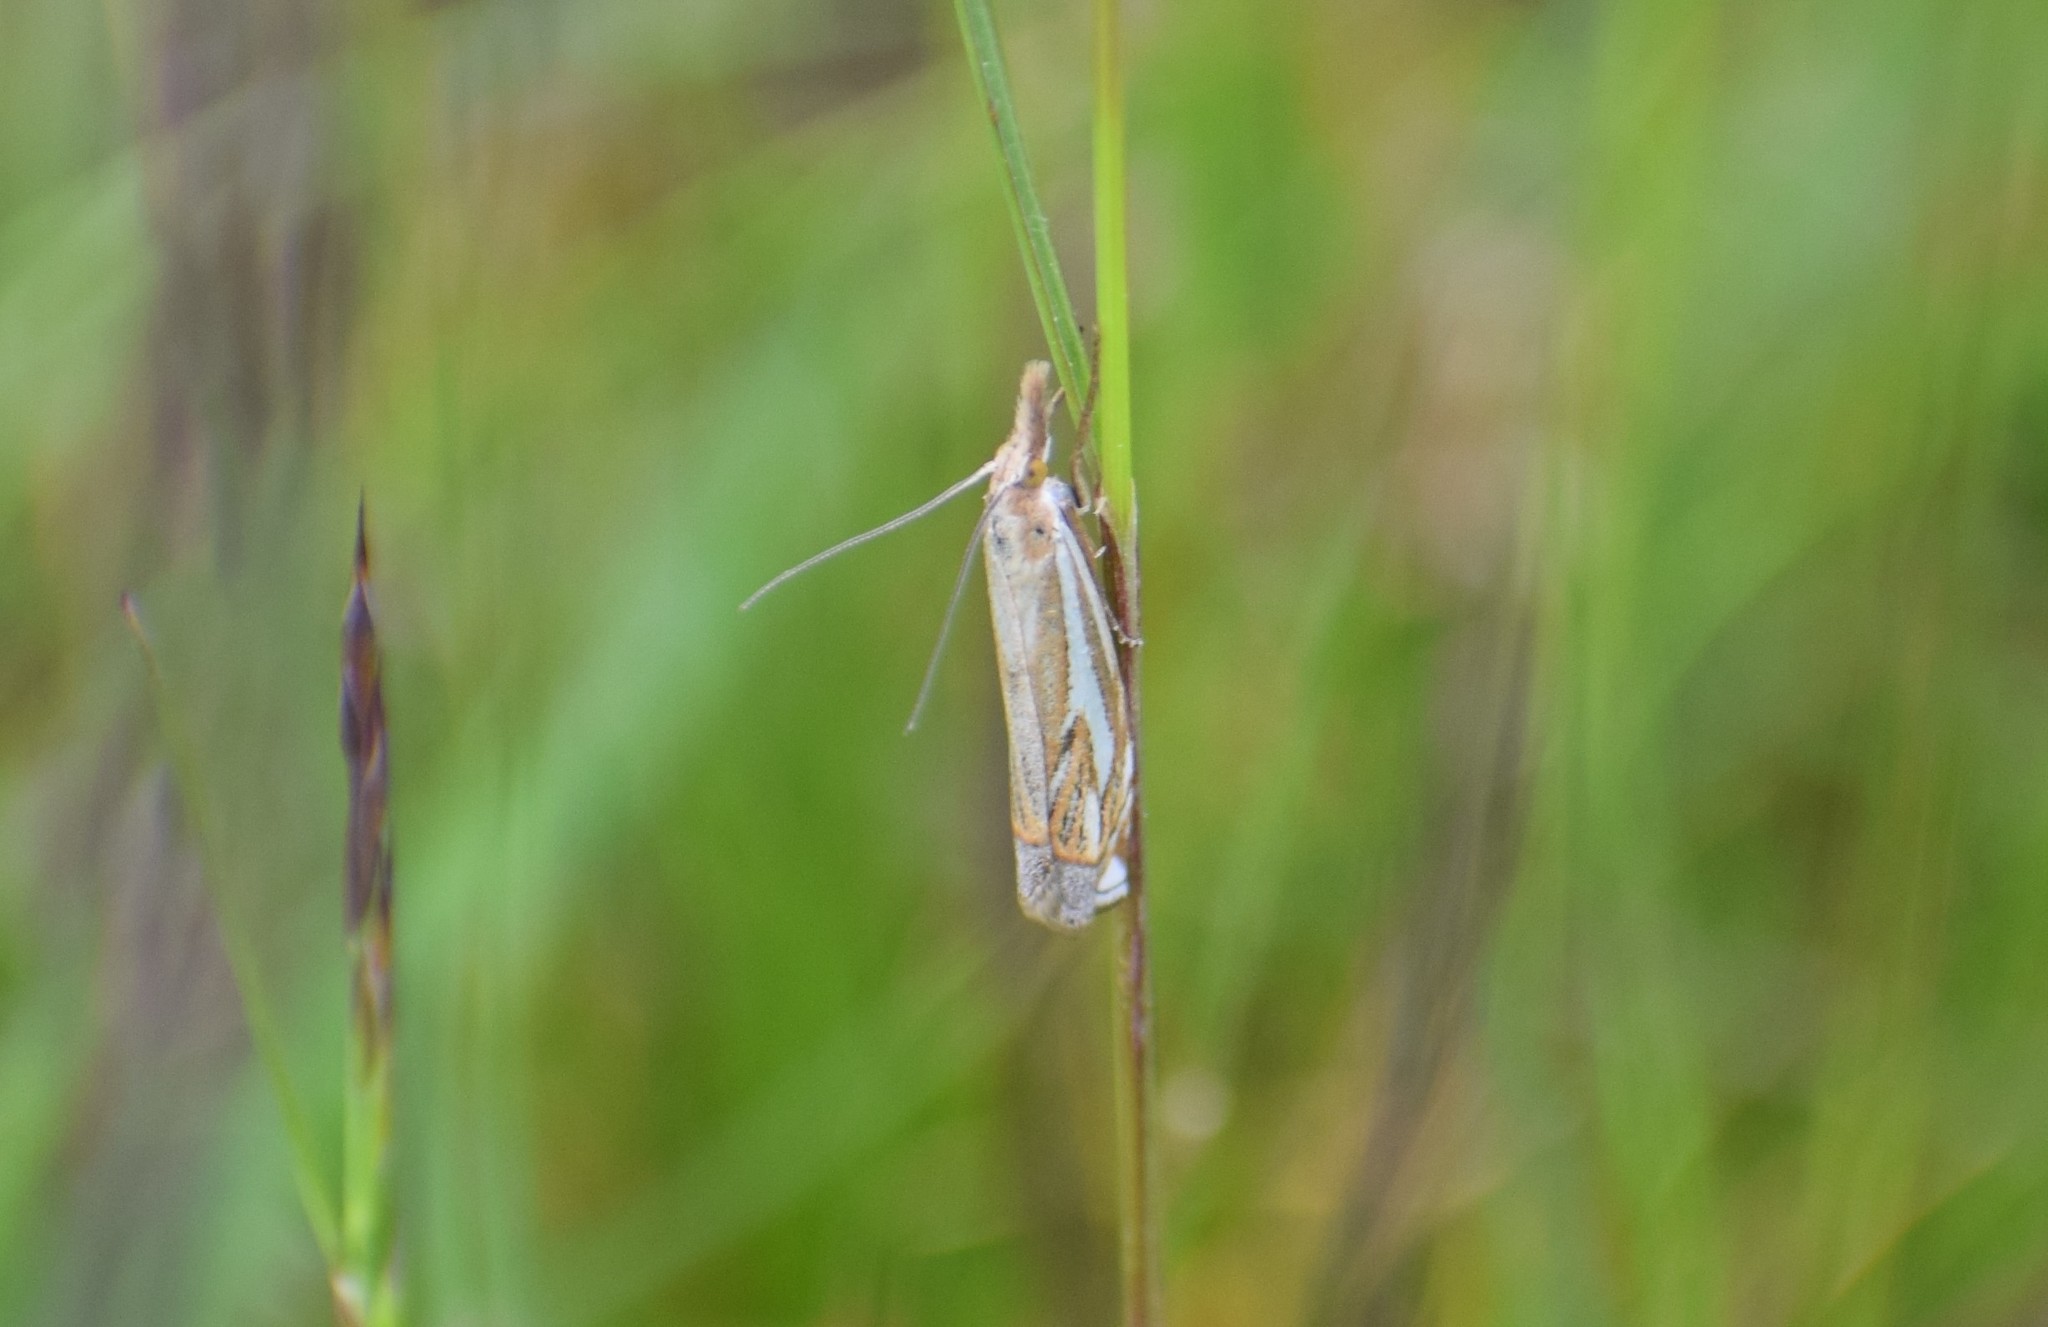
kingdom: Animalia
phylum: Arthropoda
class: Insecta
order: Lepidoptera
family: Crambidae
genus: Crambus
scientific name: Crambus pratella
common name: Scarce grass-veneer
